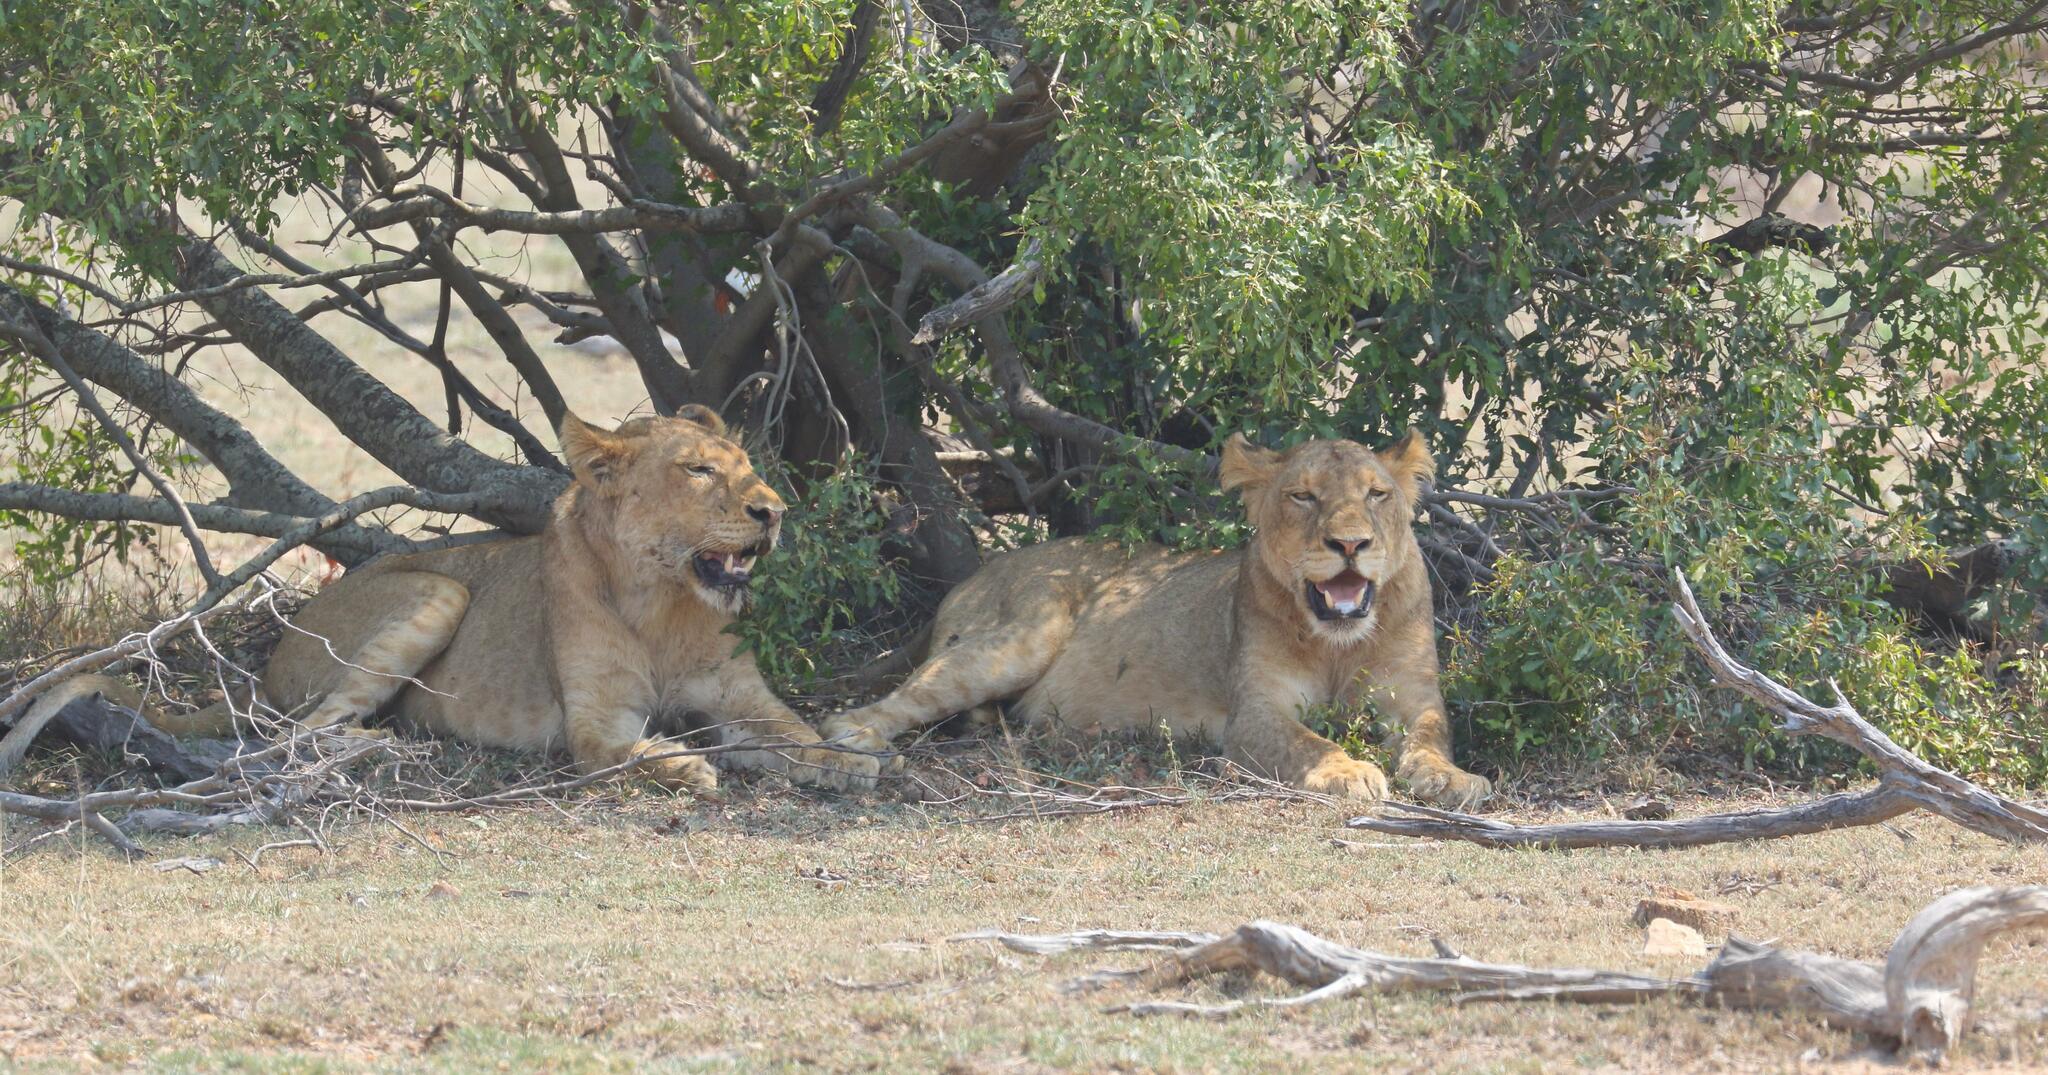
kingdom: Animalia
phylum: Chordata
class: Mammalia
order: Carnivora
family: Felidae
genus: Panthera
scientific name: Panthera leo
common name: Lion
